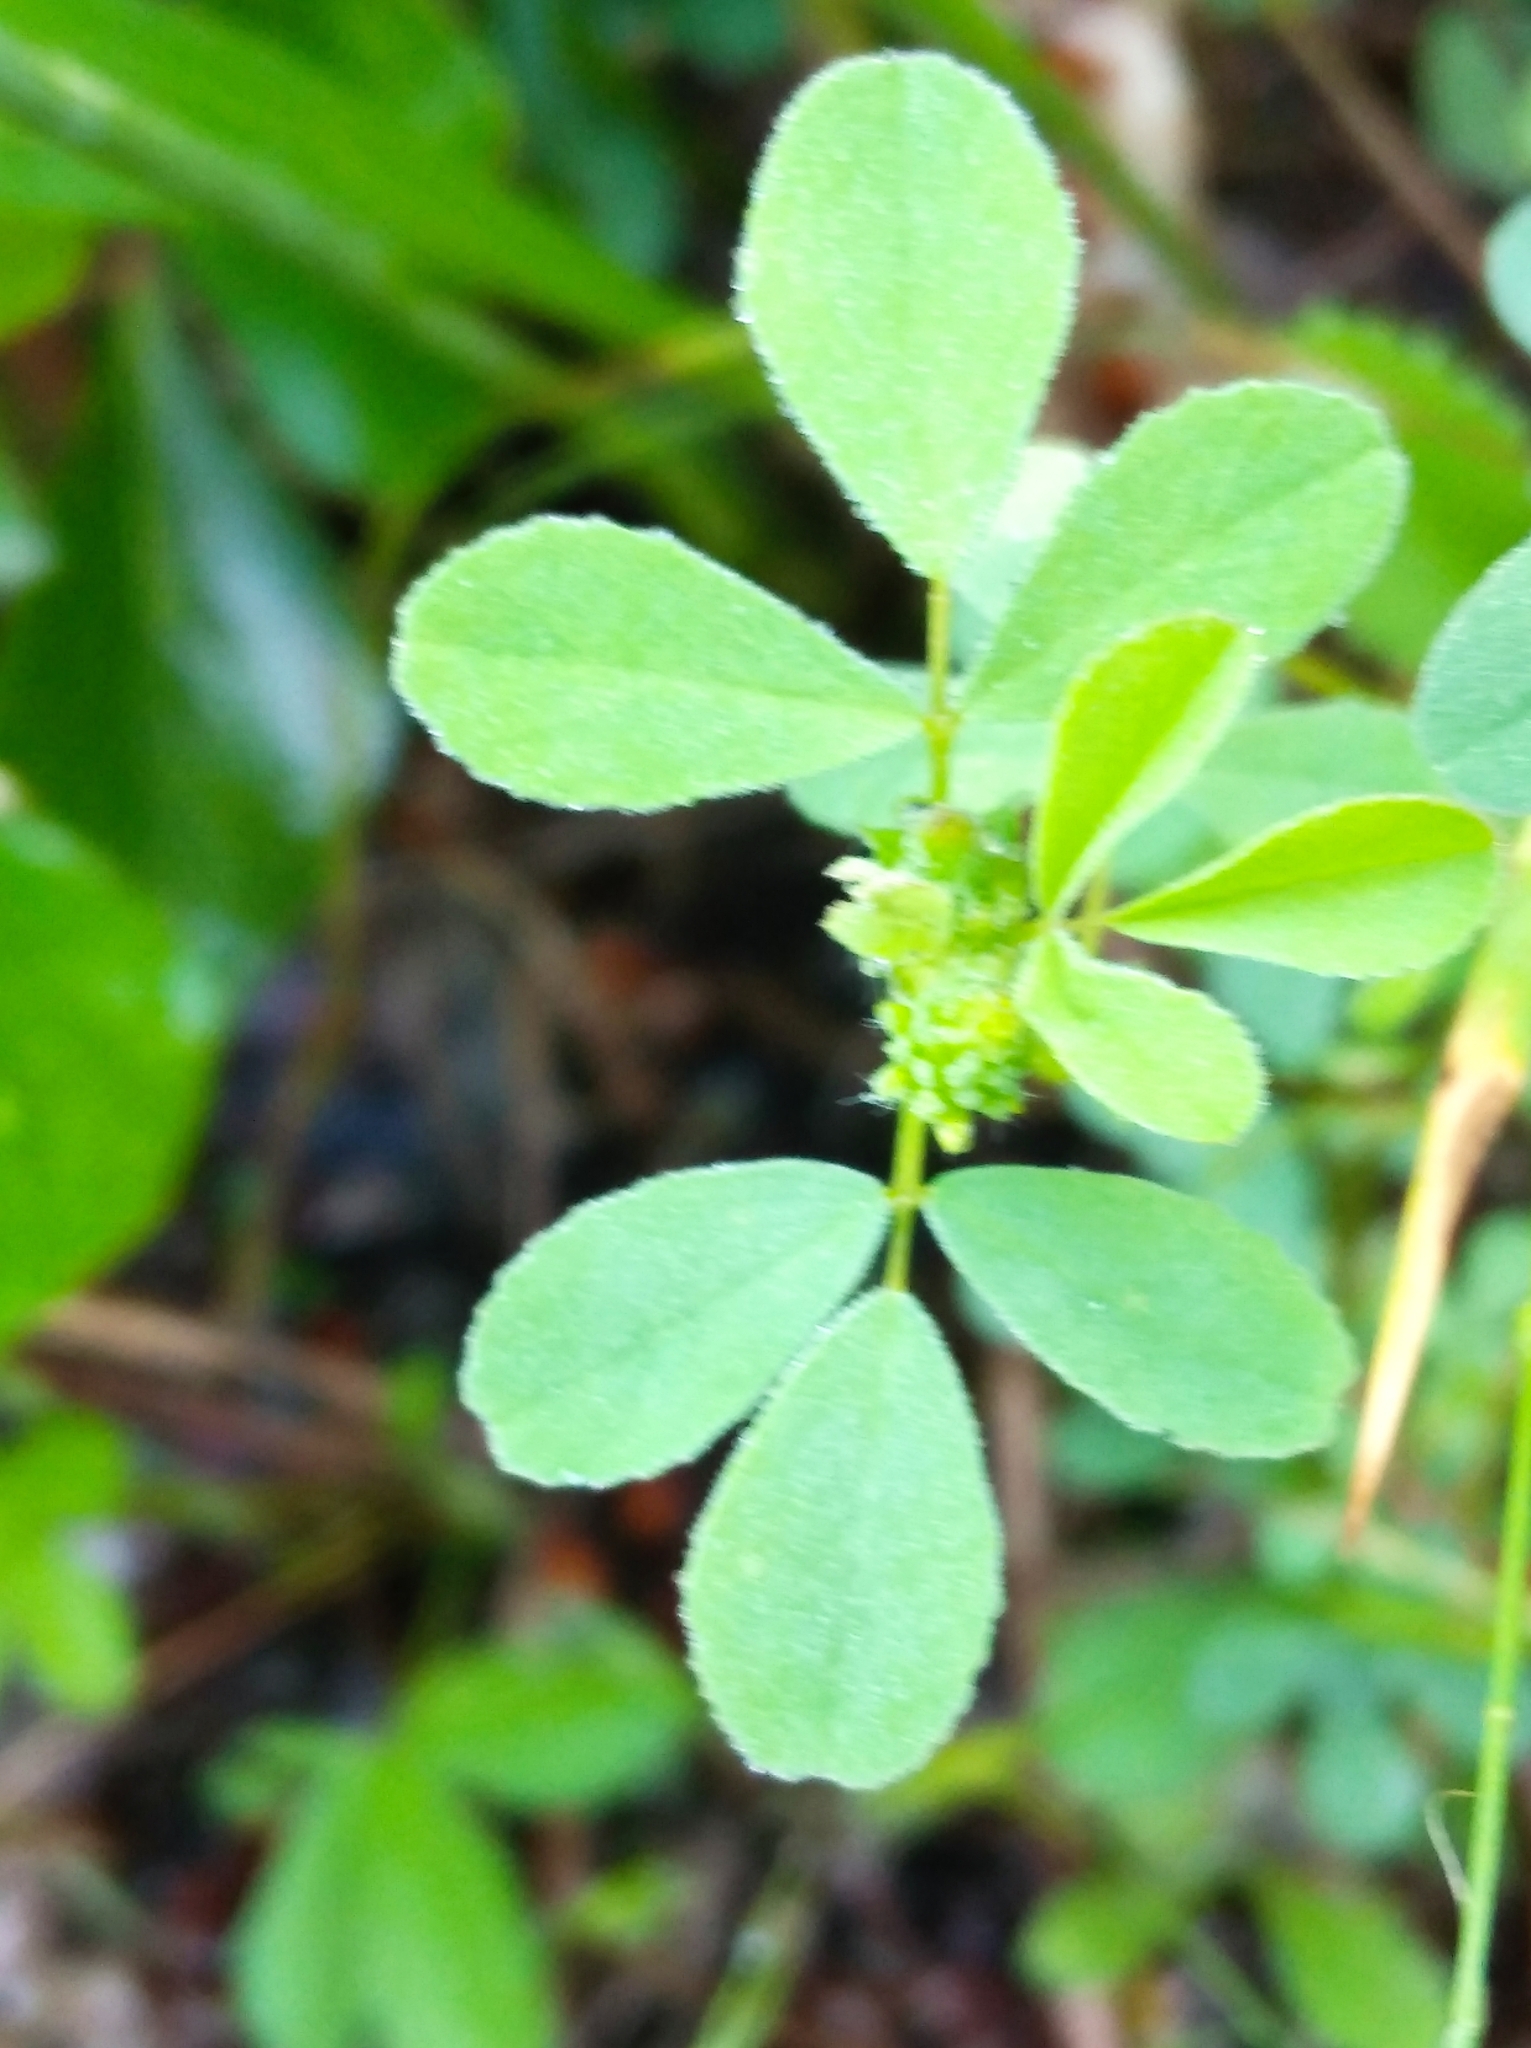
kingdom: Plantae
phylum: Tracheophyta
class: Magnoliopsida
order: Fabales
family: Fabaceae
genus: Trifolium
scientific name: Trifolium campestre
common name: Field clover
